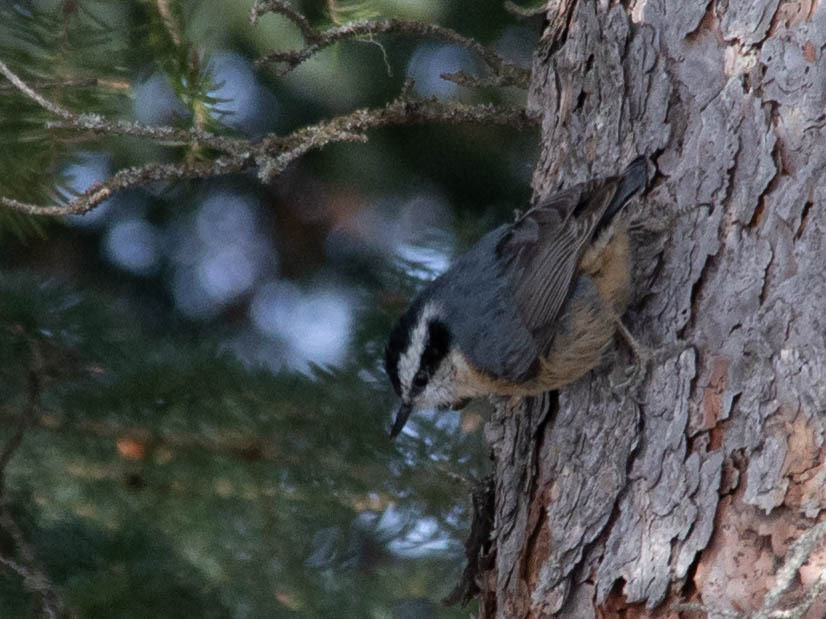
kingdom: Animalia
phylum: Chordata
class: Aves
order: Passeriformes
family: Sittidae
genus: Sitta
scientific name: Sitta canadensis
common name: Red-breasted nuthatch
